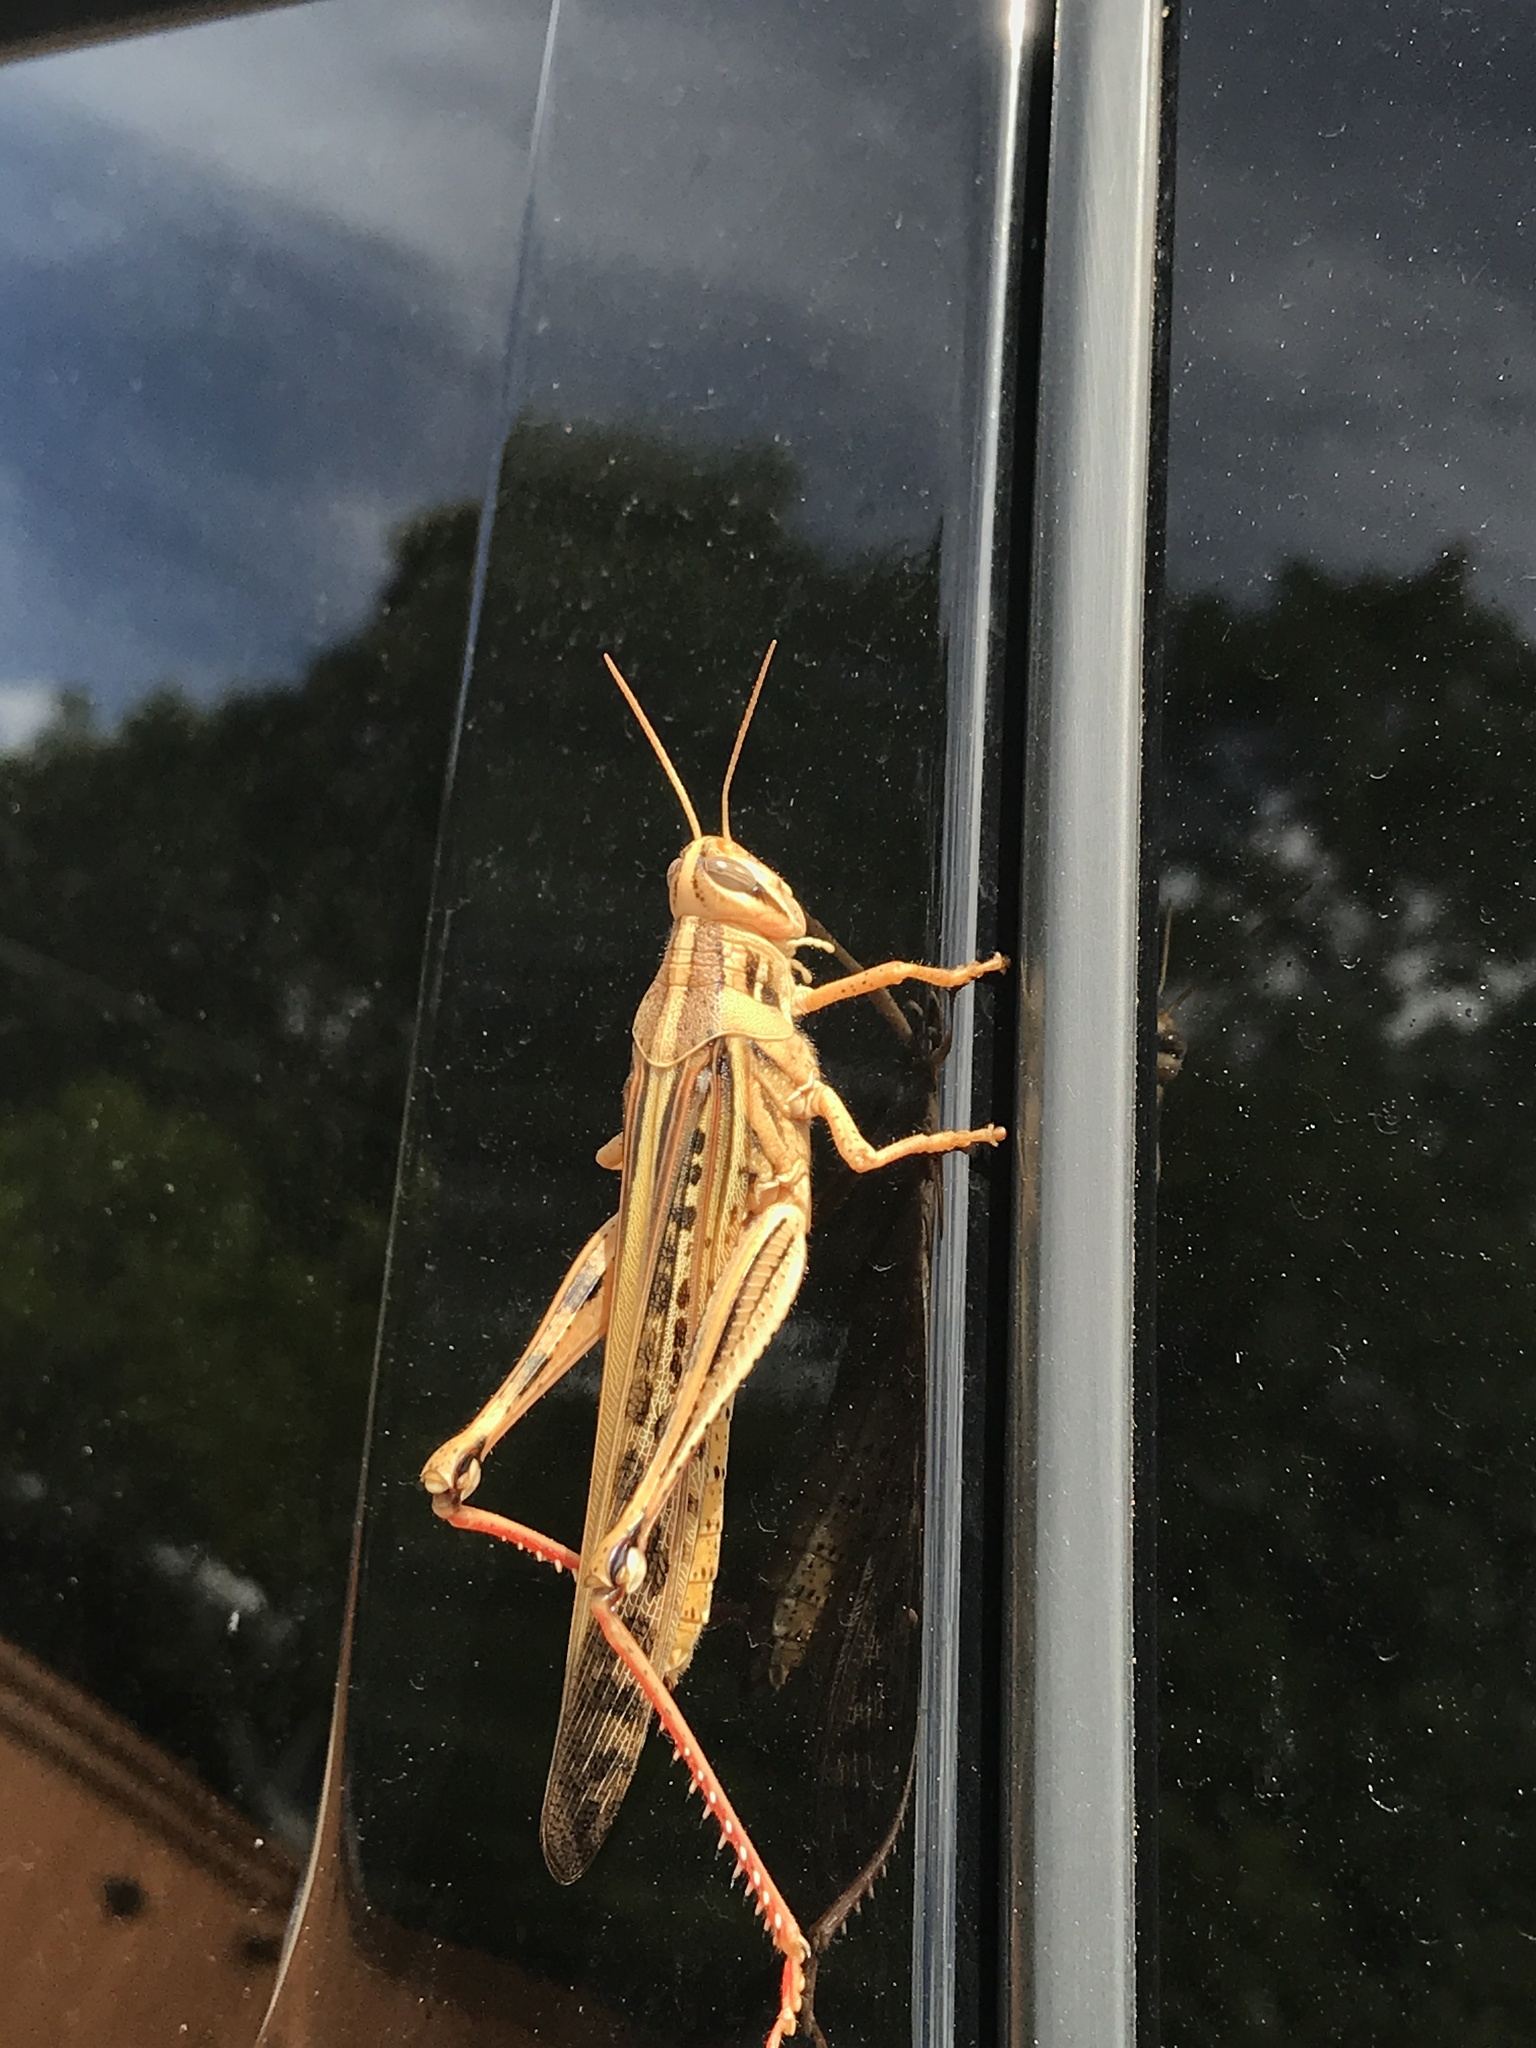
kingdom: Animalia
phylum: Arthropoda
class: Insecta
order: Orthoptera
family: Acrididae
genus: Schistocerca
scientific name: Schistocerca americana
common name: American bird locust
